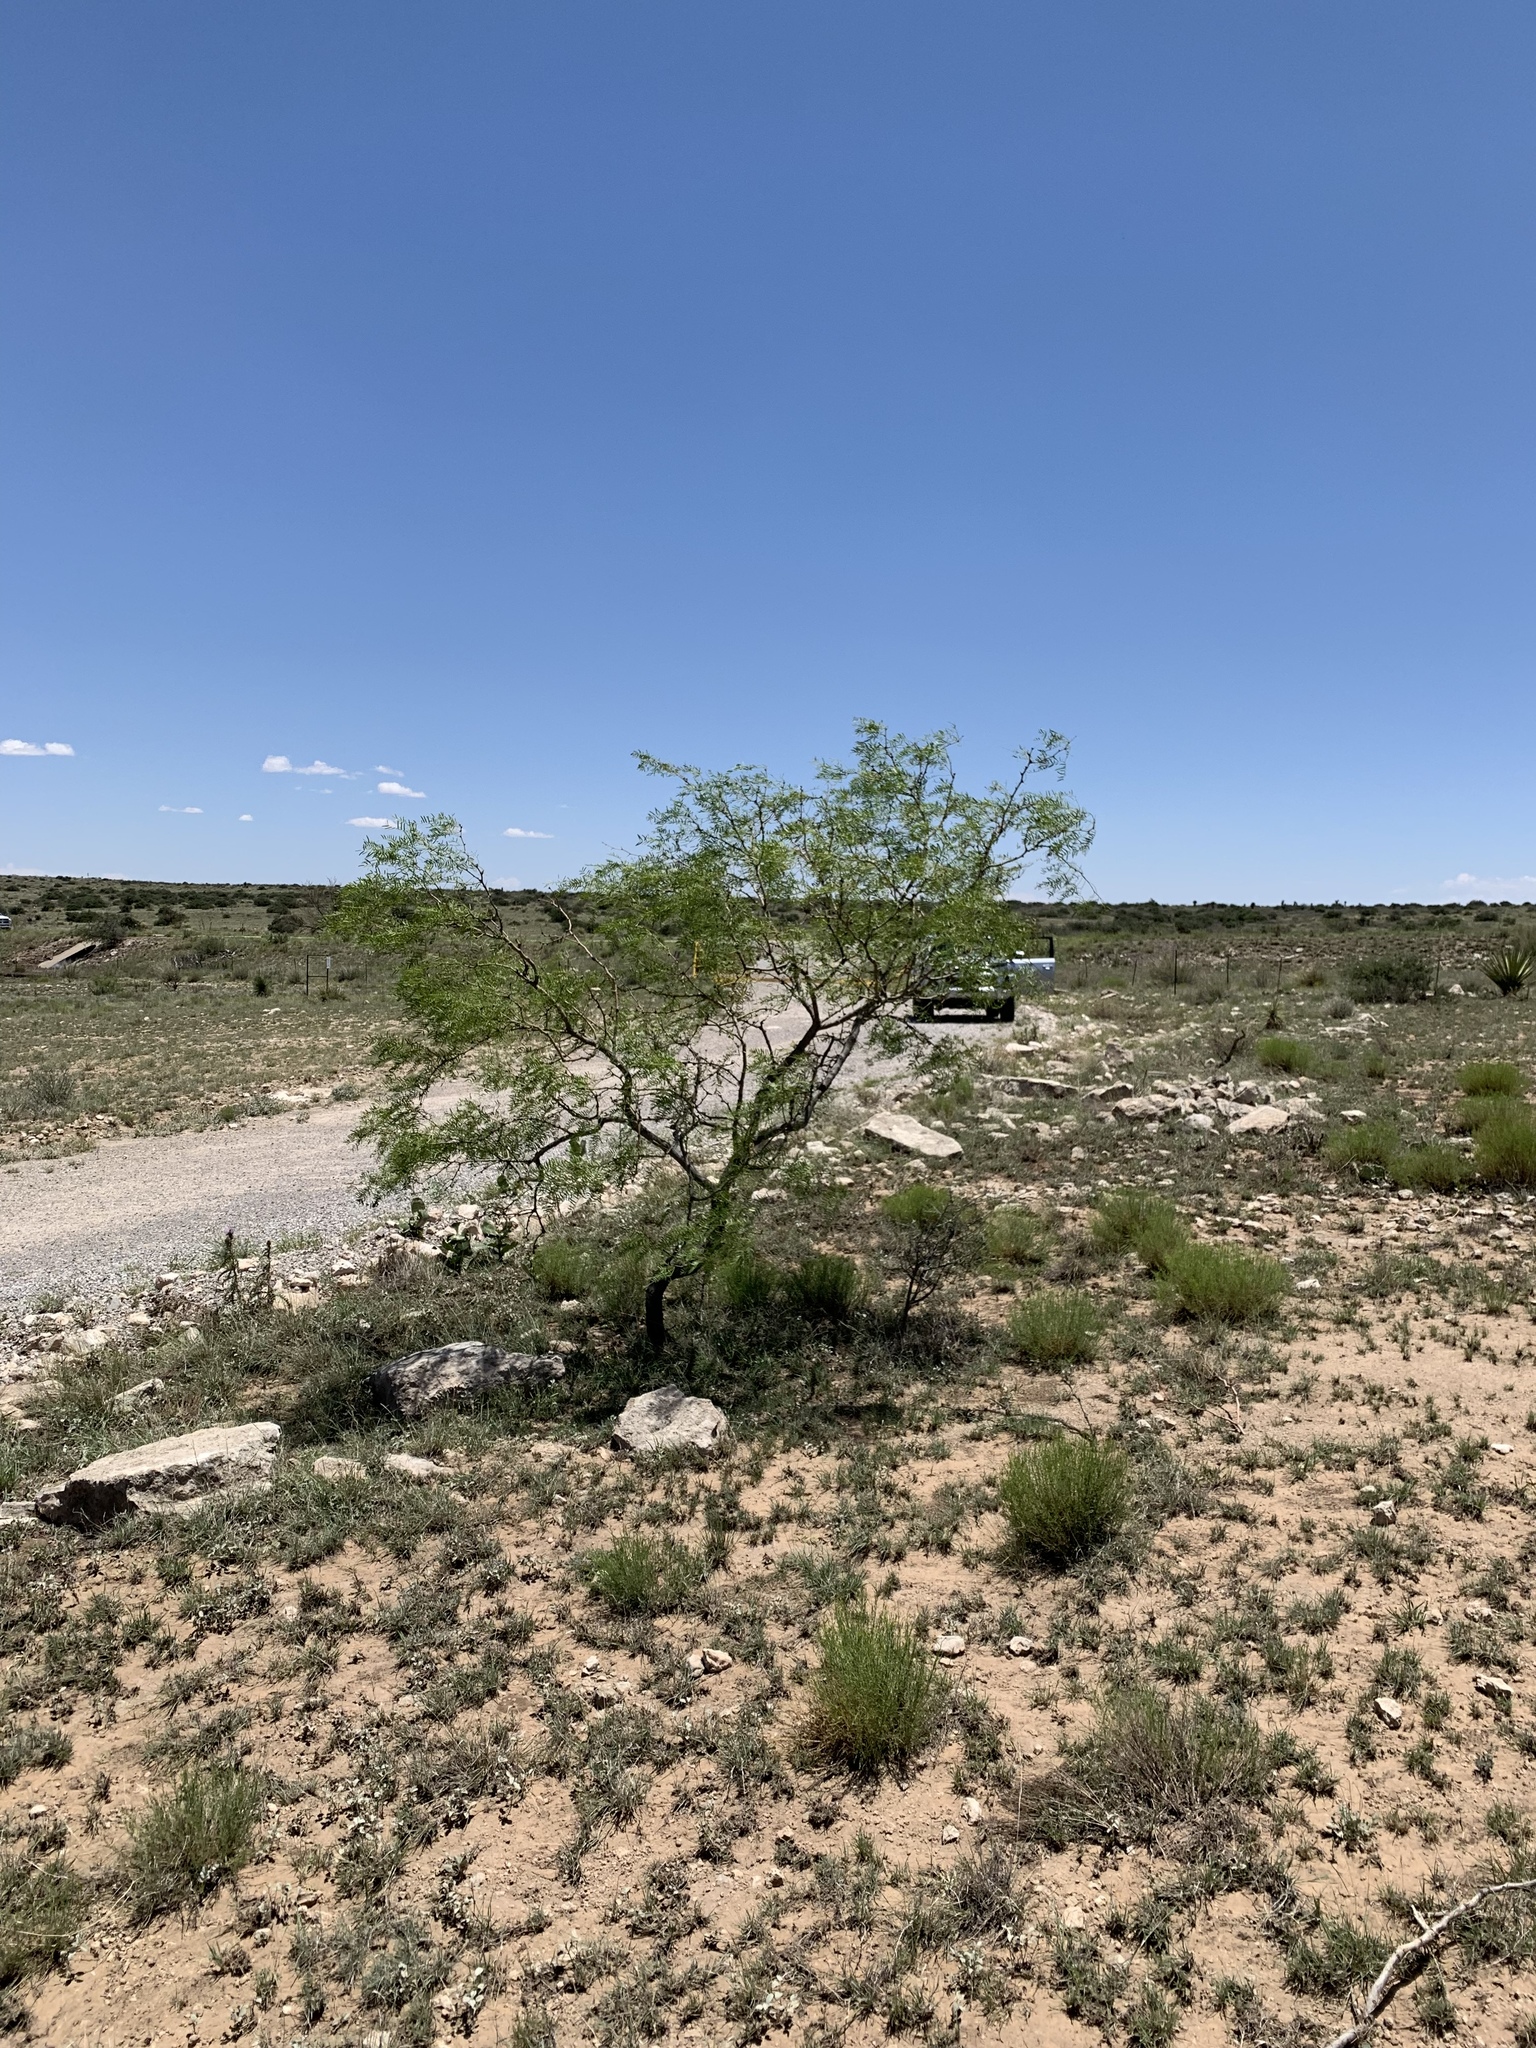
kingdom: Plantae
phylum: Tracheophyta
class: Magnoliopsida
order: Fabales
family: Fabaceae
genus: Prosopis
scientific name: Prosopis glandulosa
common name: Honey mesquite
